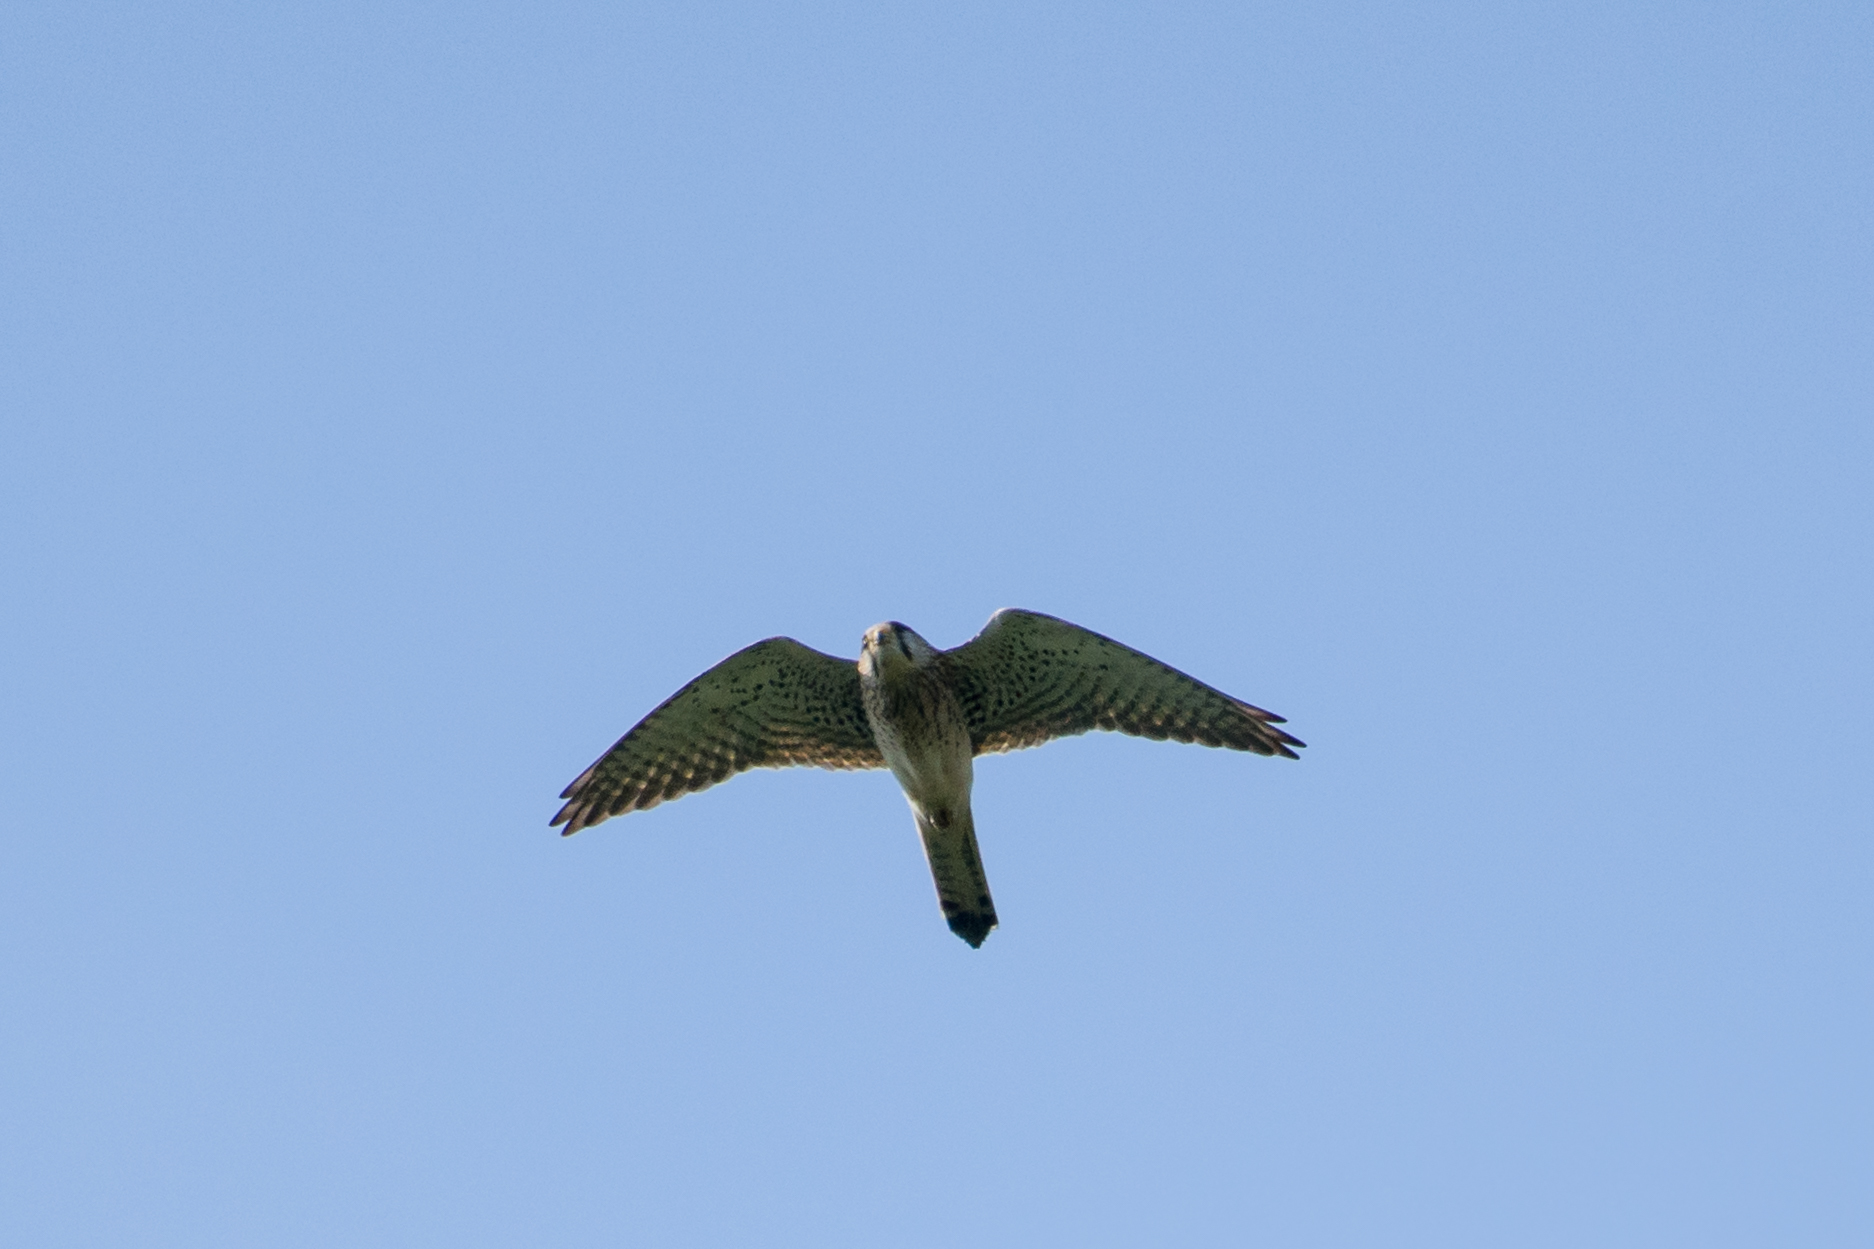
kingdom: Animalia
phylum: Chordata
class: Aves
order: Falconiformes
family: Falconidae
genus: Falco
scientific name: Falco tinnunculus
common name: Common kestrel
